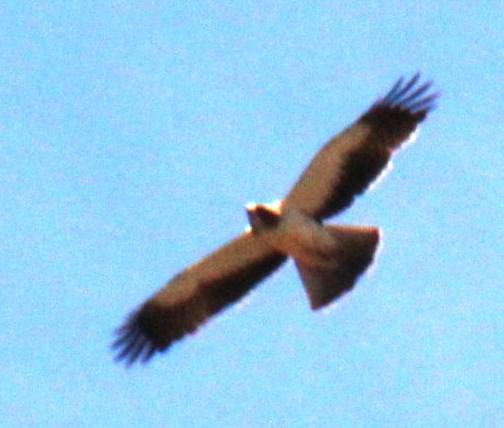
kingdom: Animalia
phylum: Chordata
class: Aves
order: Accipitriformes
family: Accipitridae
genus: Hieraaetus
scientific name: Hieraaetus pennatus
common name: Booted eagle
